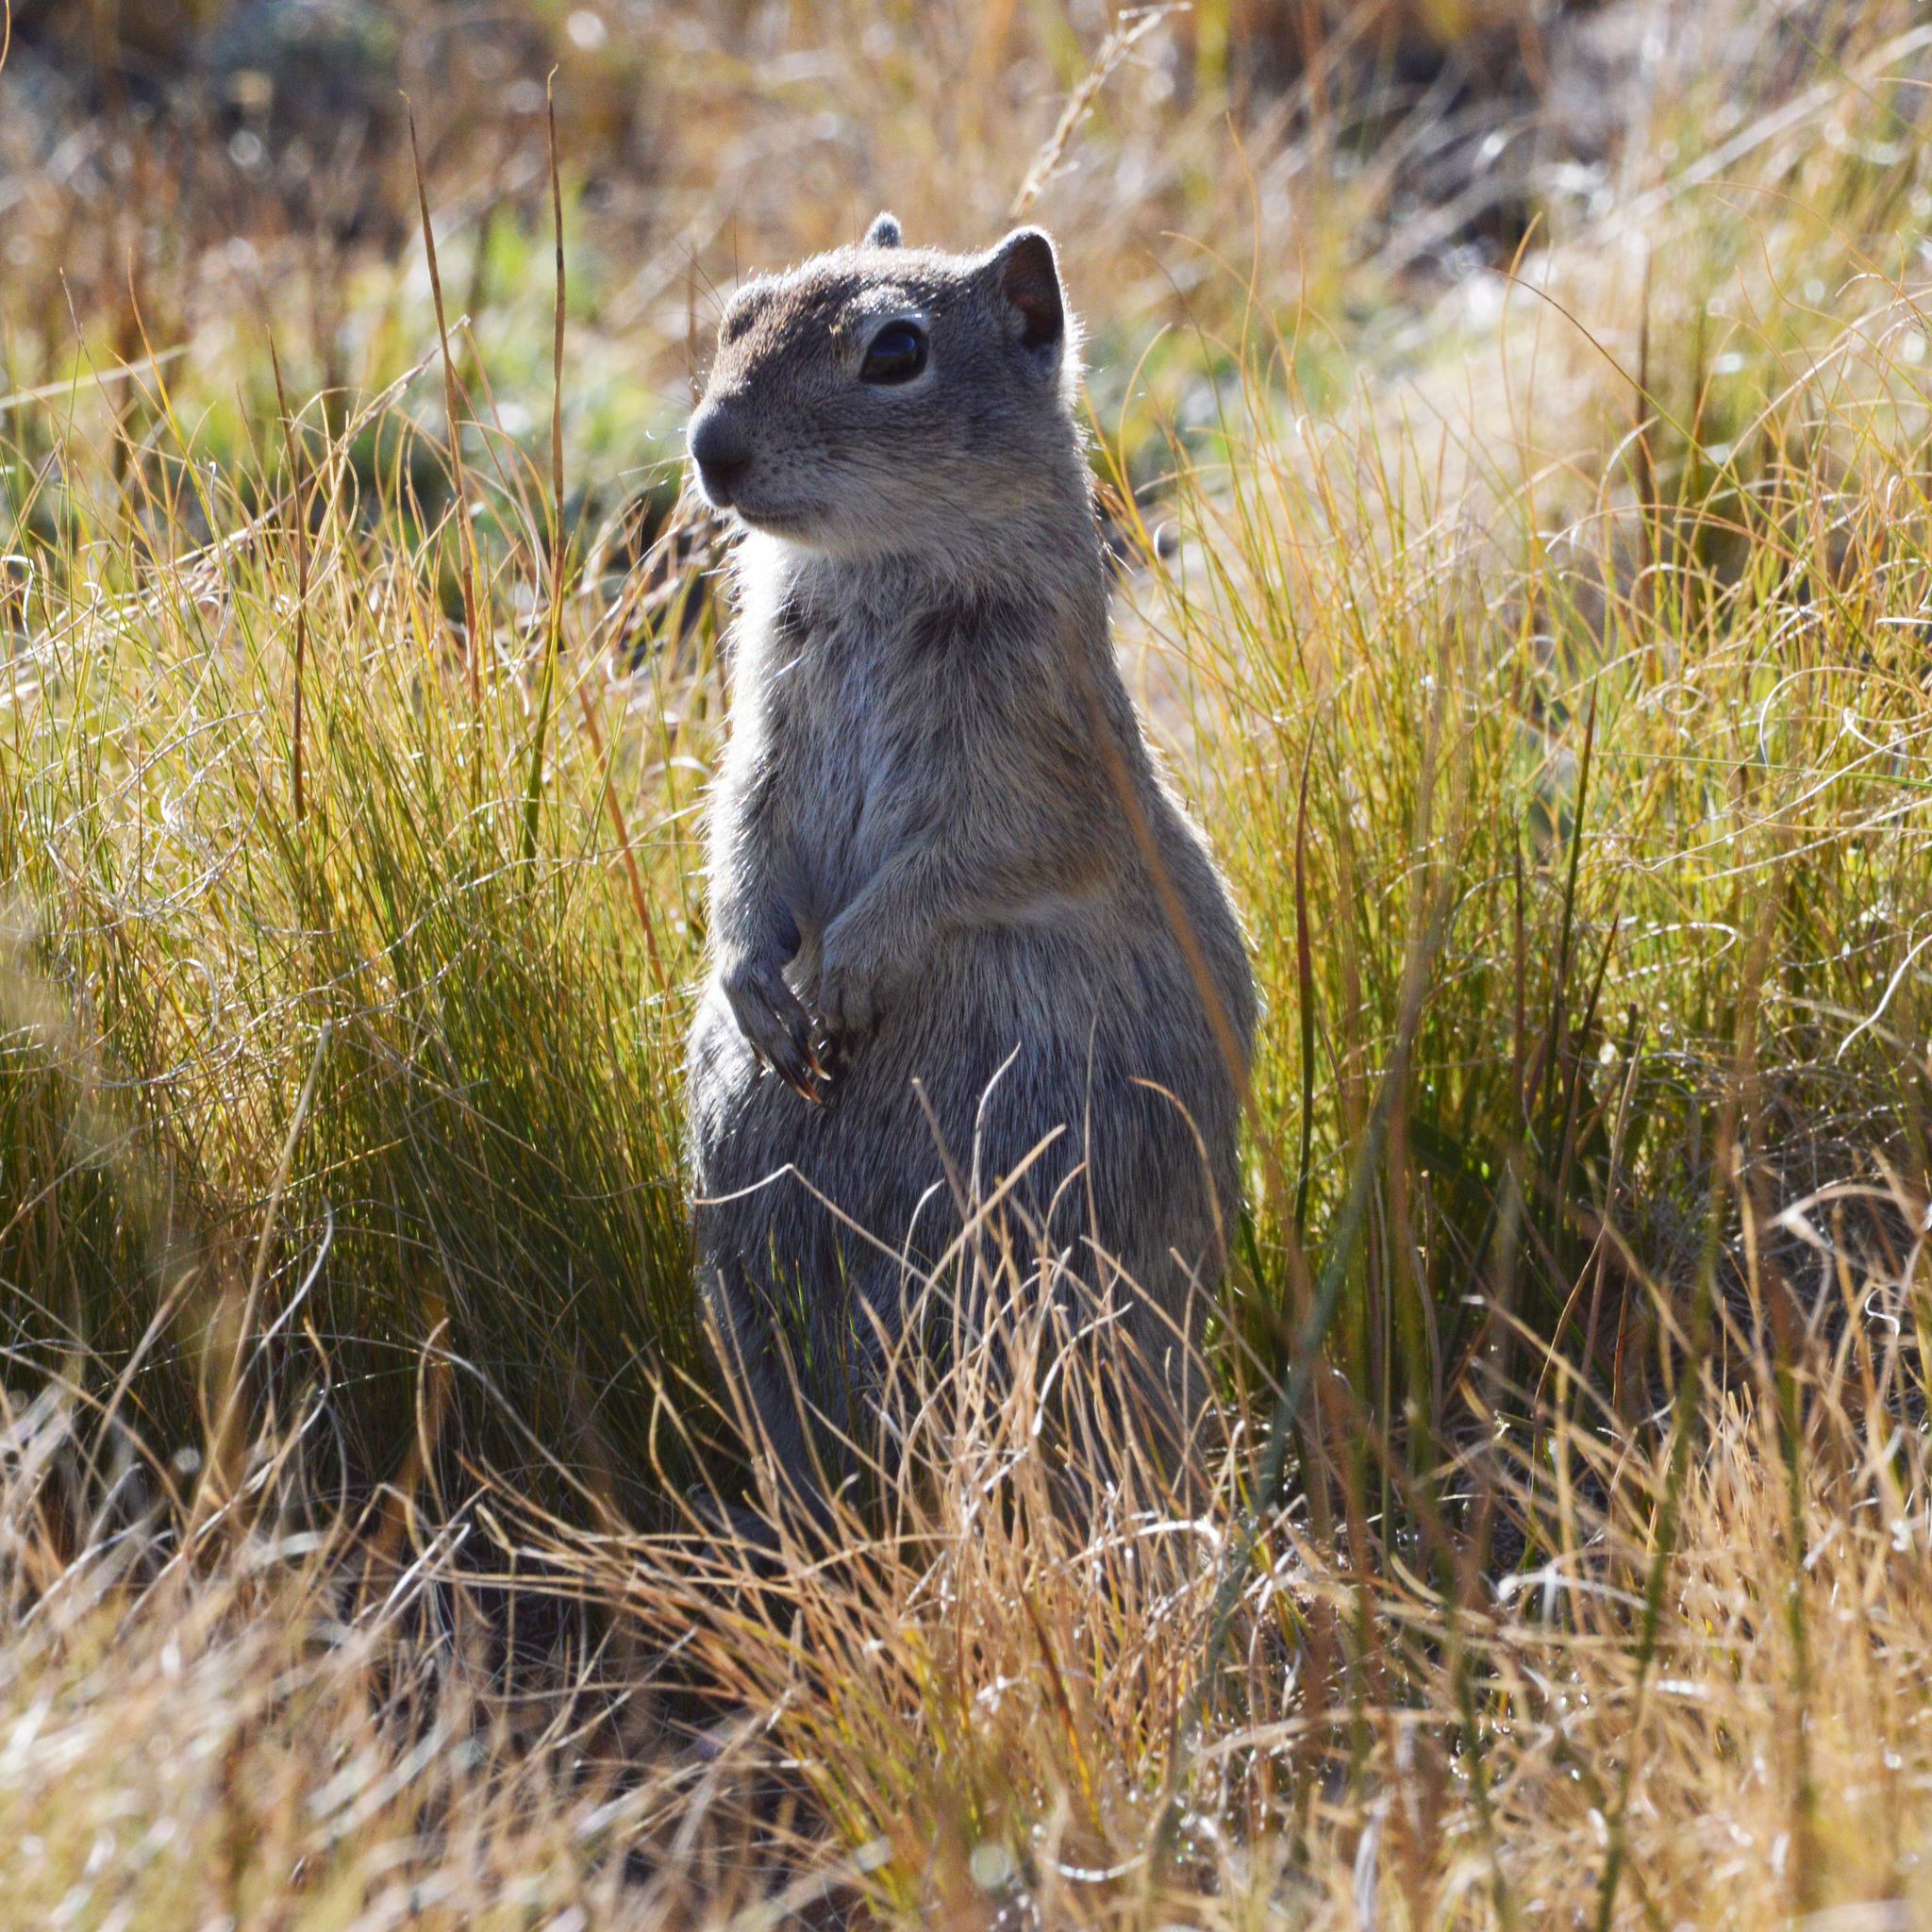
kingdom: Animalia
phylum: Chordata
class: Mammalia
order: Rodentia
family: Sciuridae
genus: Urocitellus
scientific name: Urocitellus beldingi
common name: Belding's ground squirrel
